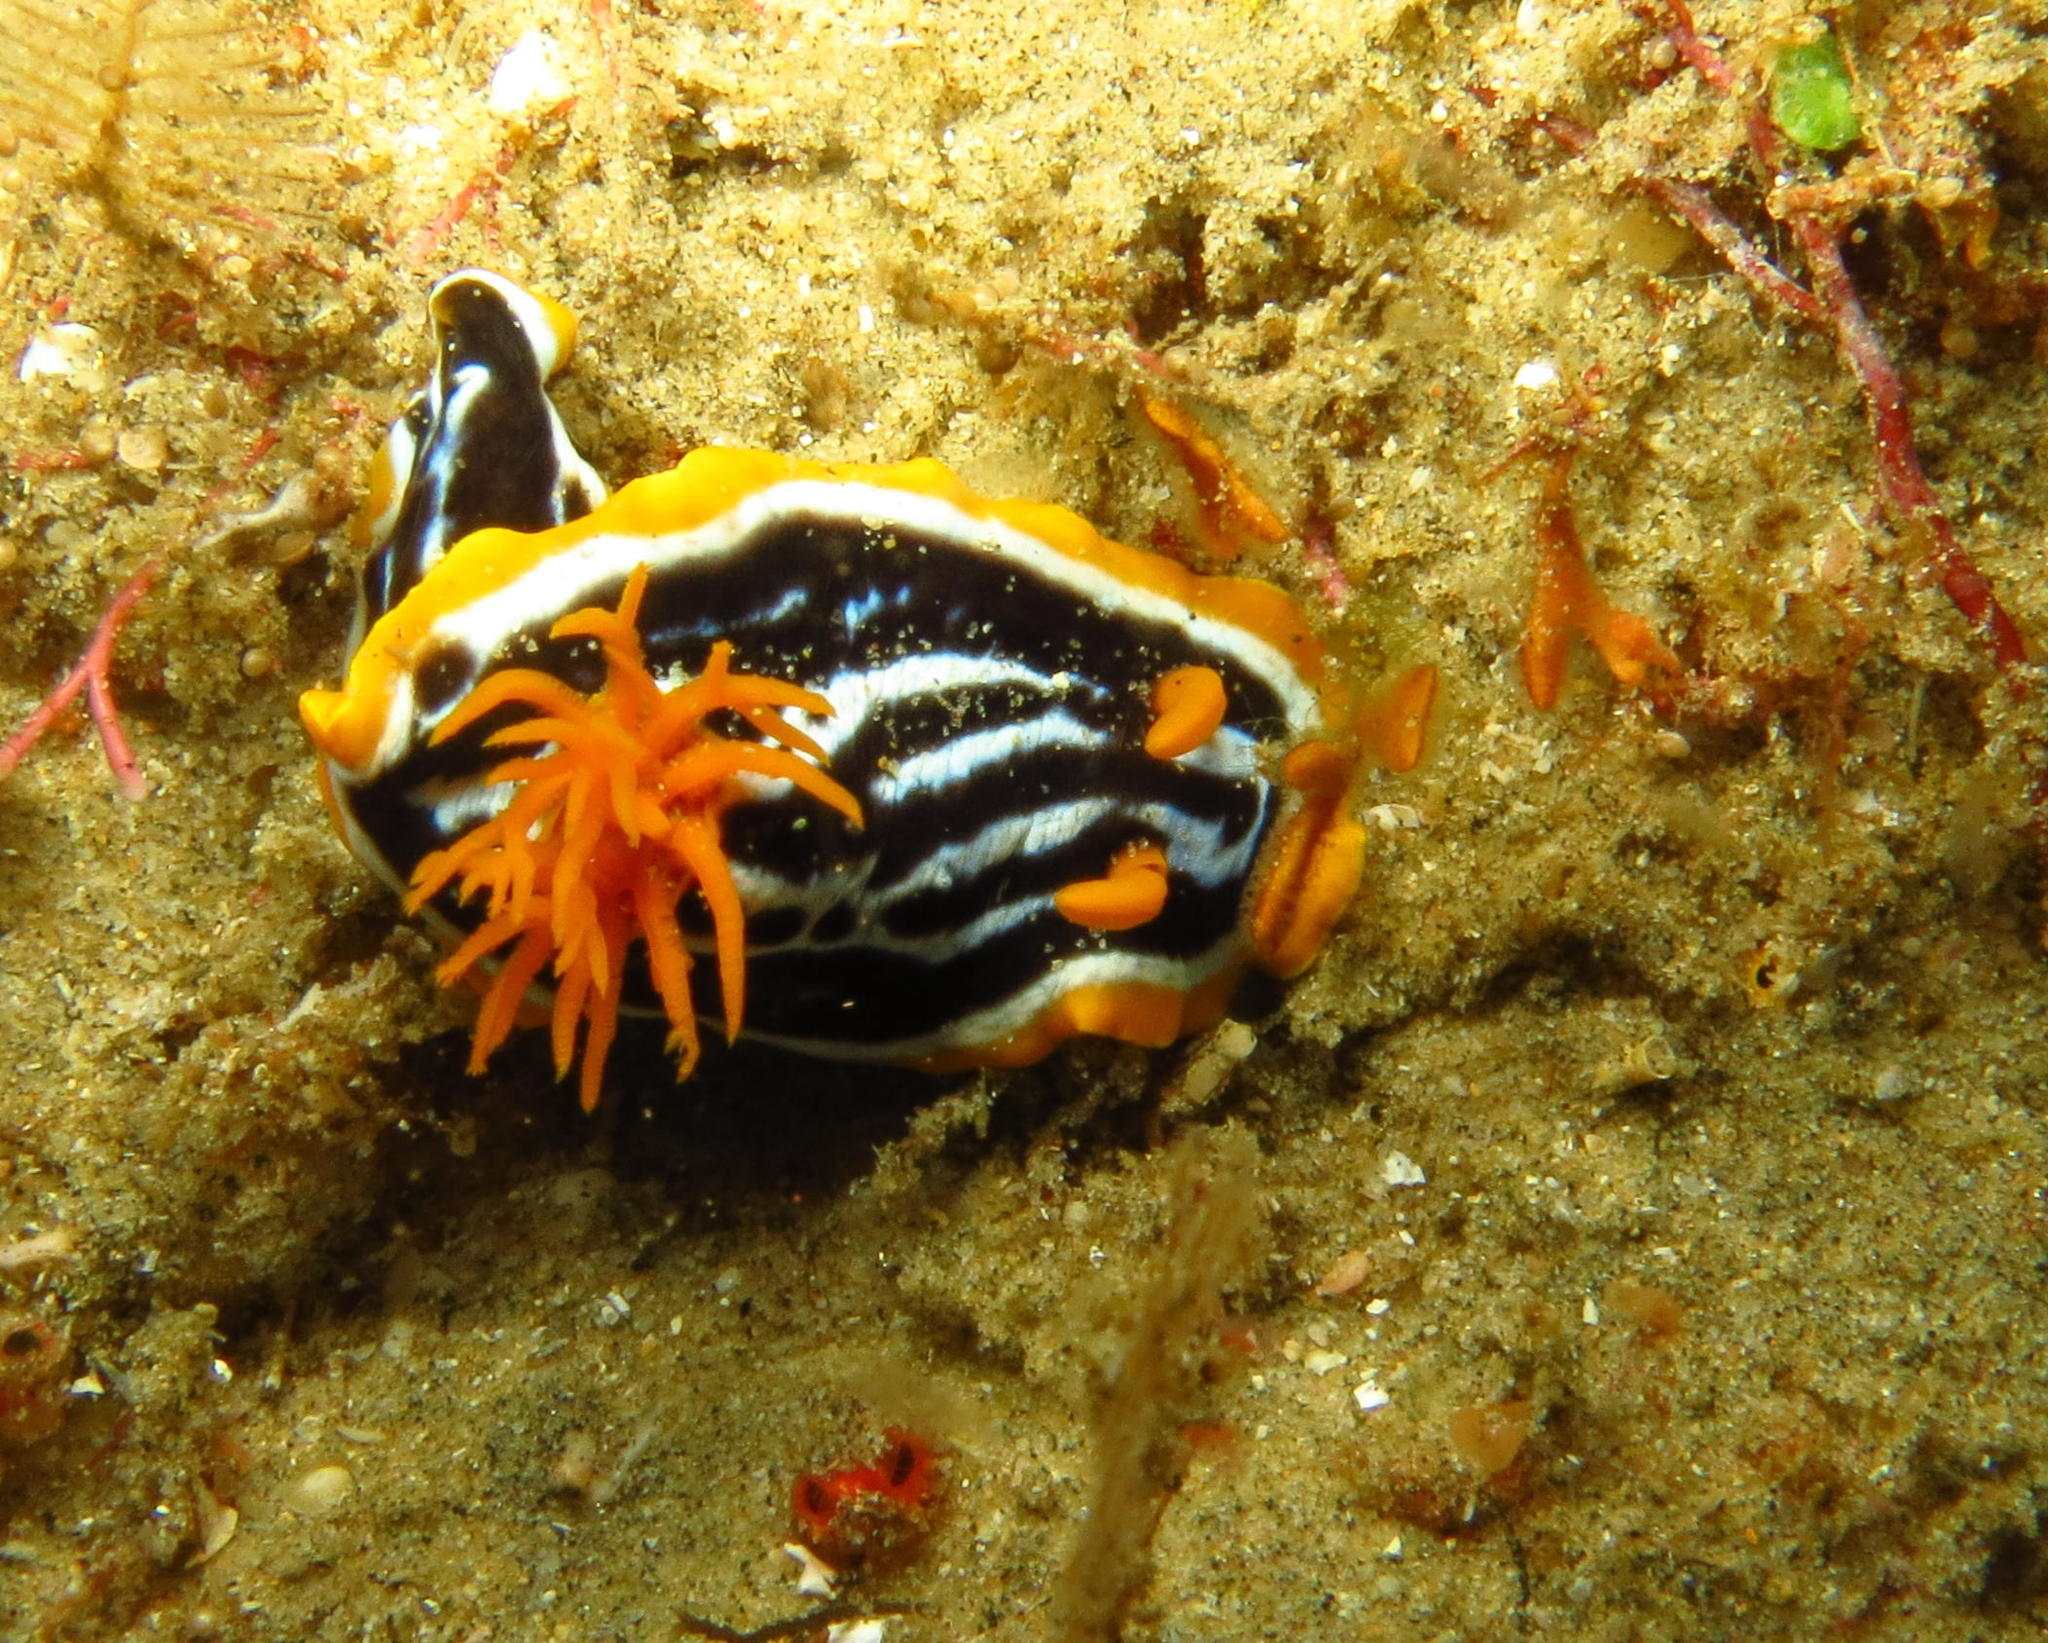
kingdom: Animalia
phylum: Mollusca
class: Gastropoda
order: Nudibranchia
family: Chromodorididae
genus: Chromodoris
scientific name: Chromodoris africana
